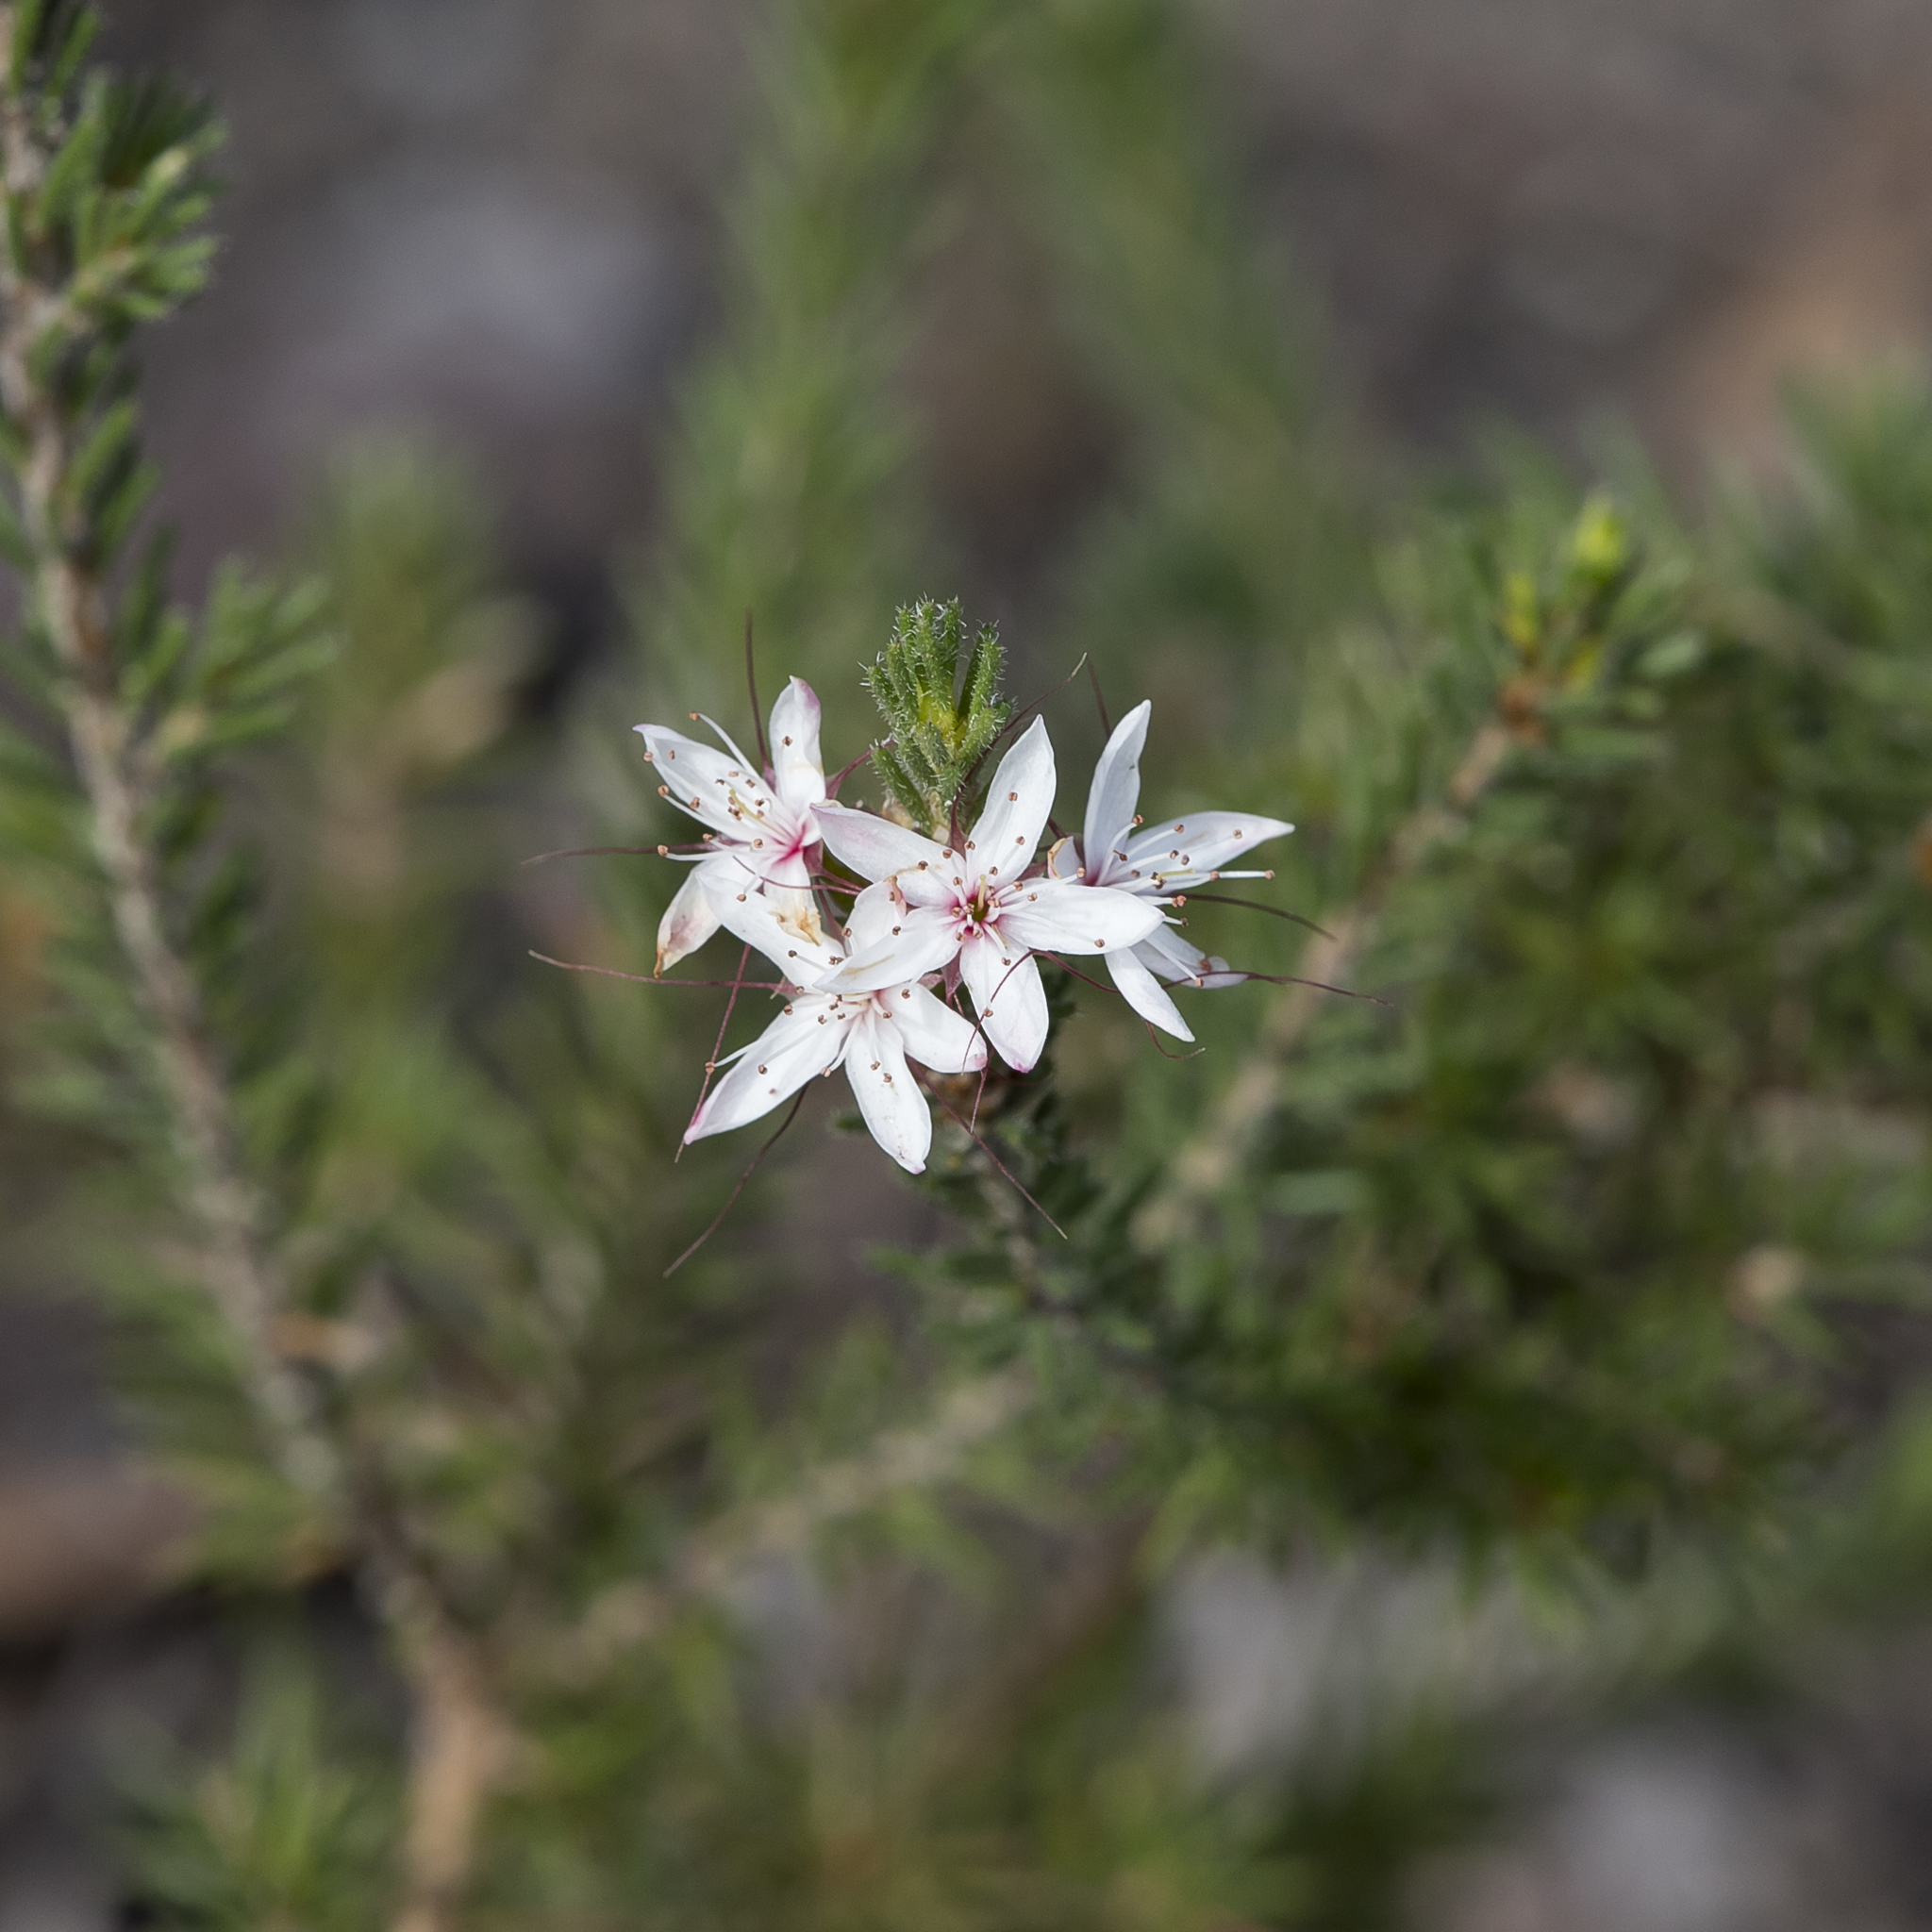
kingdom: Plantae
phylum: Tracheophyta
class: Magnoliopsida
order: Myrtales
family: Myrtaceae
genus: Calytrix
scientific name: Calytrix tetragona
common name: Common fringe myrtle
